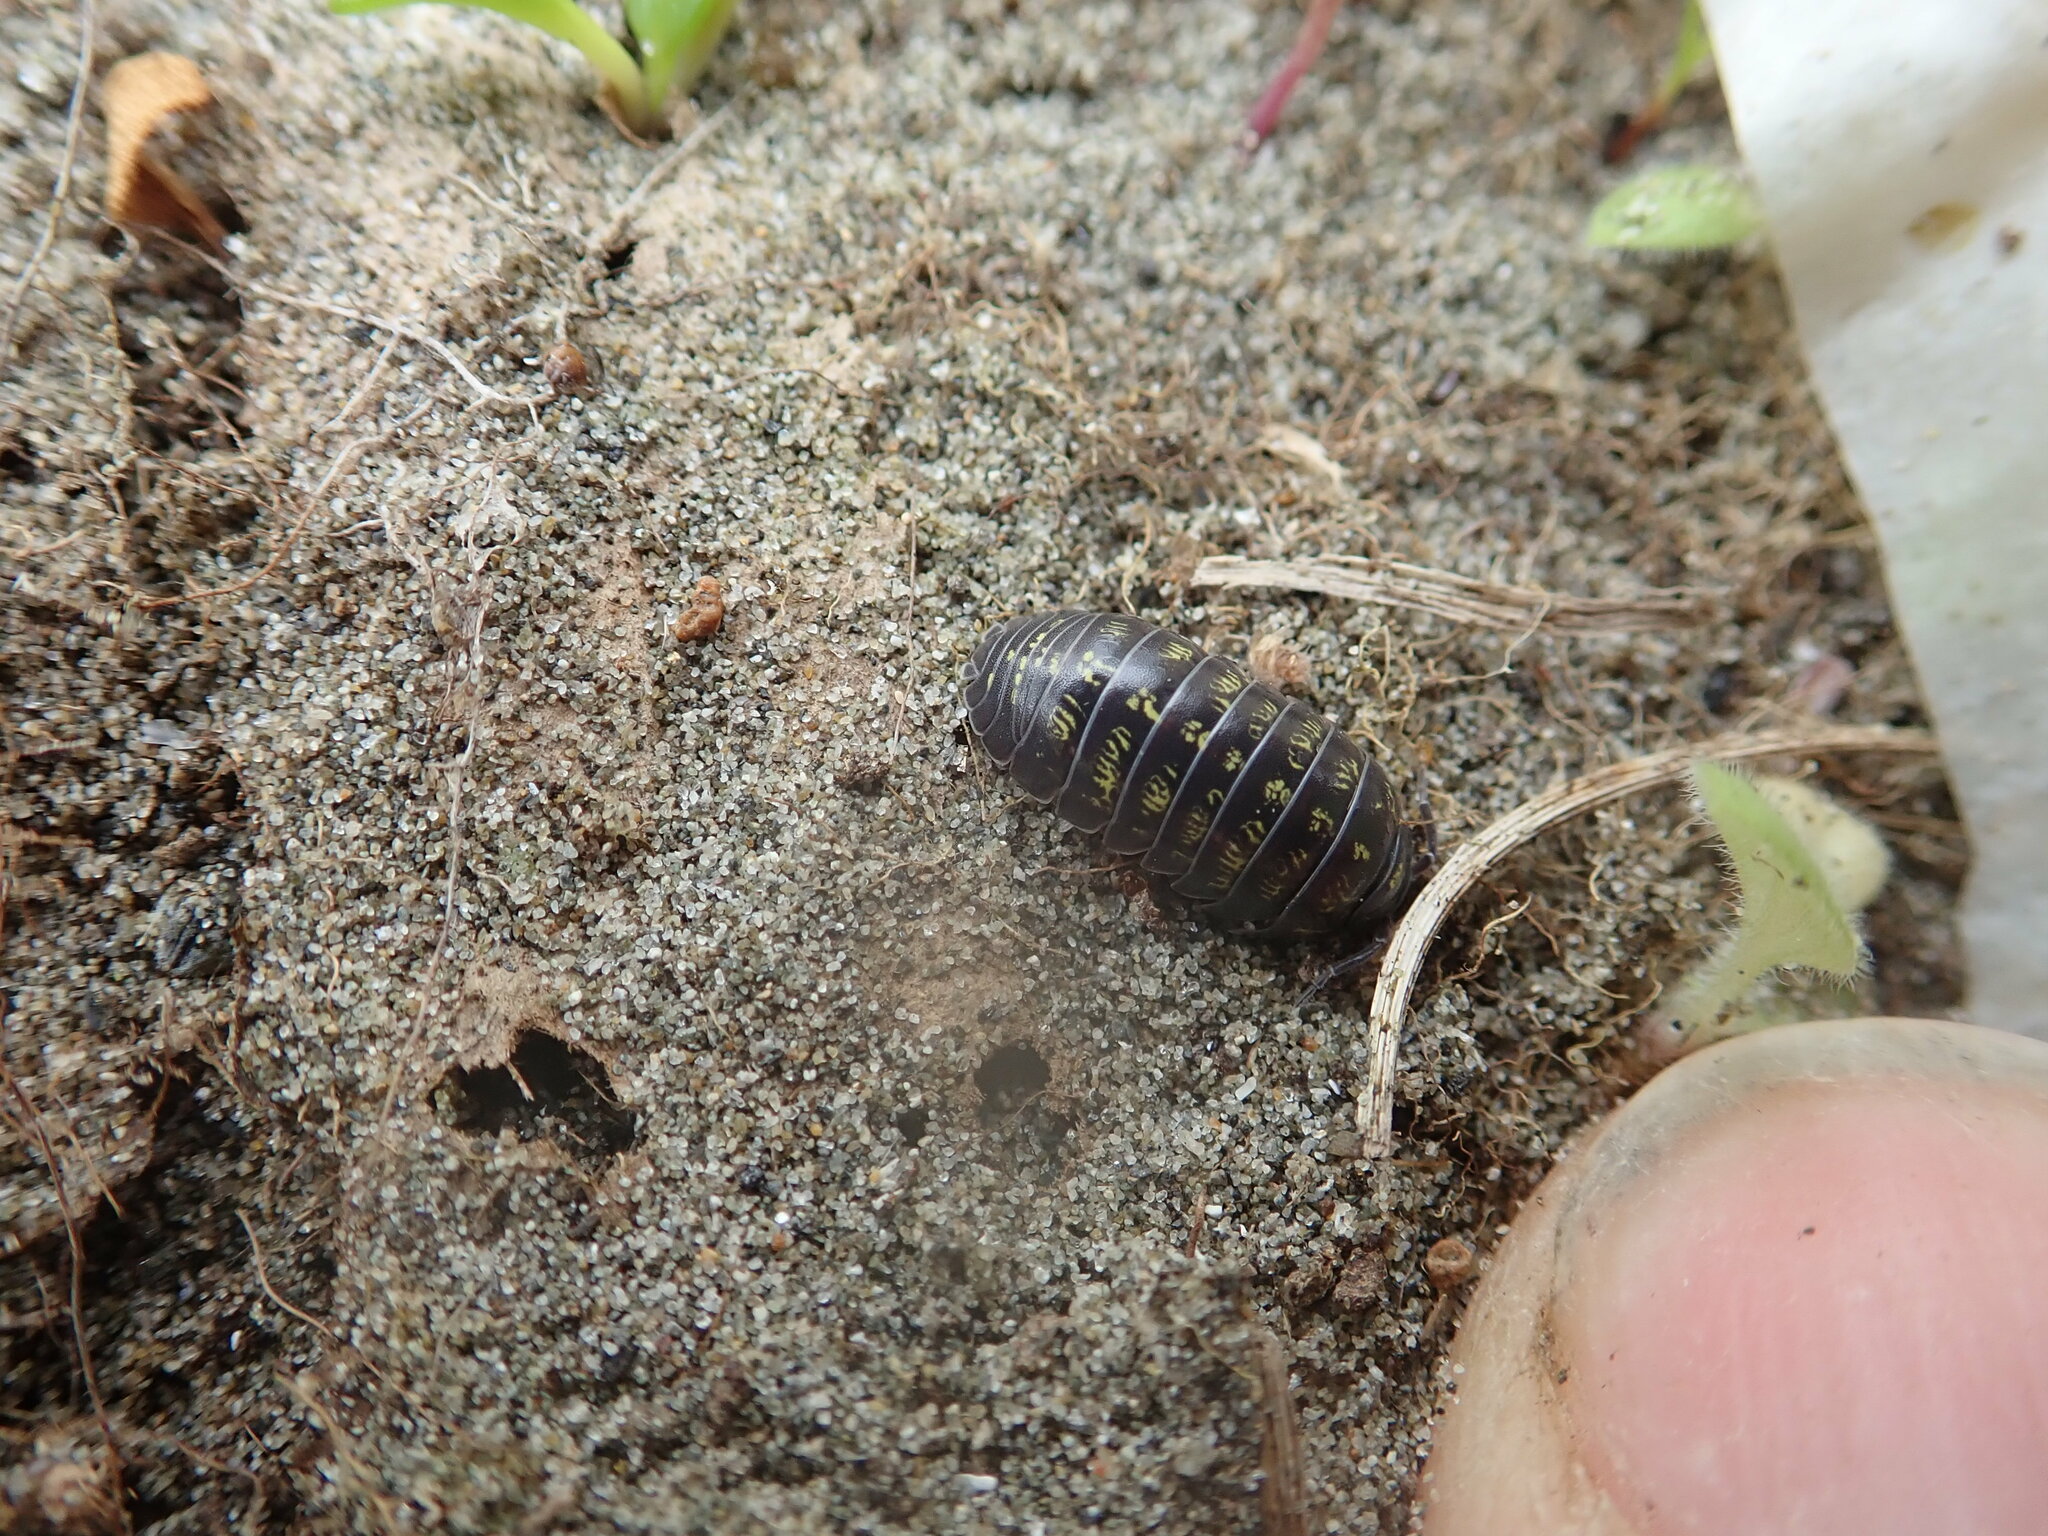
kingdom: Animalia
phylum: Arthropoda
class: Malacostraca
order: Isopoda
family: Armadillidiidae
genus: Armadillidium
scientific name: Armadillidium vulgare
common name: Common pill woodlouse
